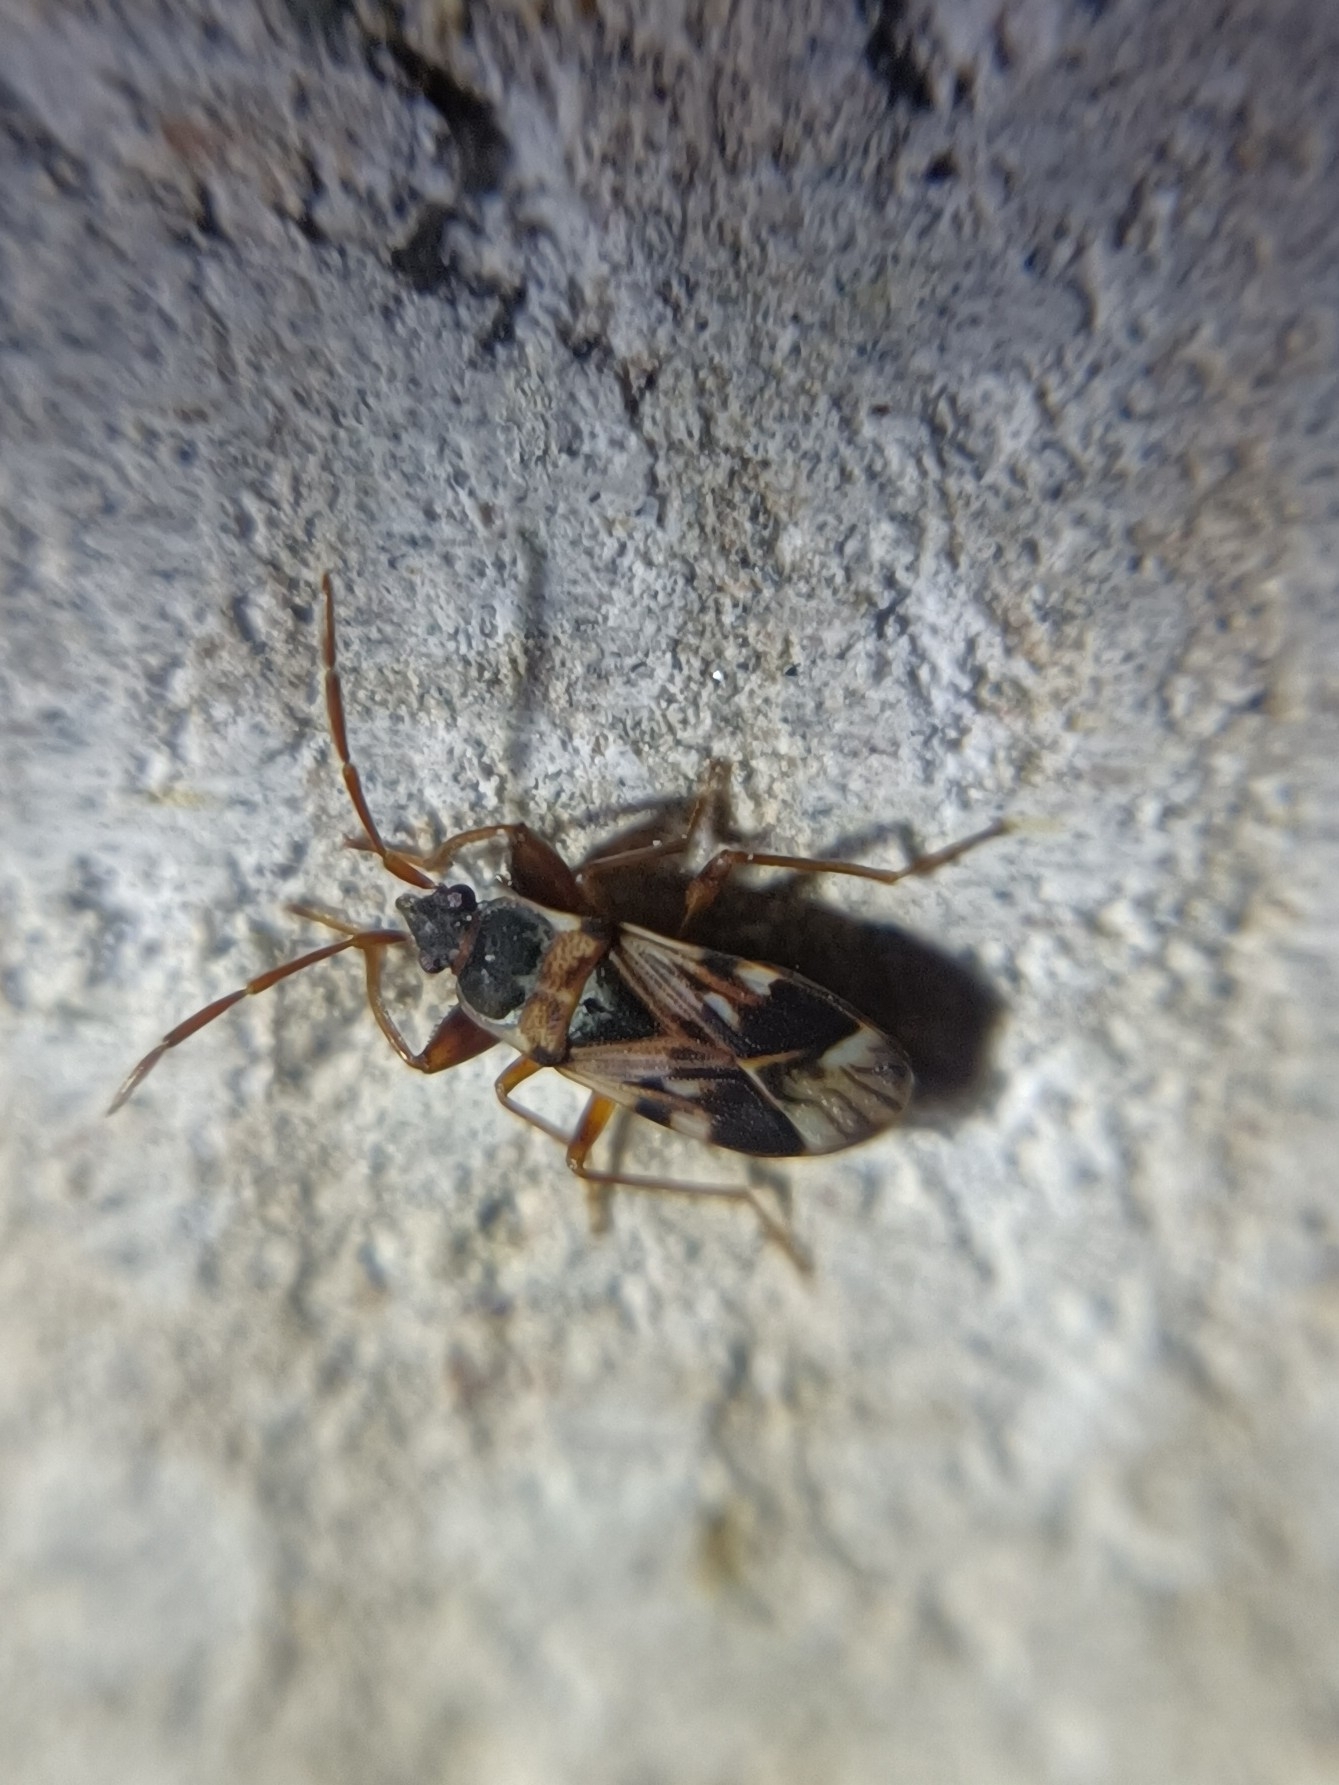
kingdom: Animalia
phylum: Arthropoda
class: Insecta
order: Hemiptera
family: Rhyparochromidae
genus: Scolopostethus
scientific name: Scolopostethus pictus
